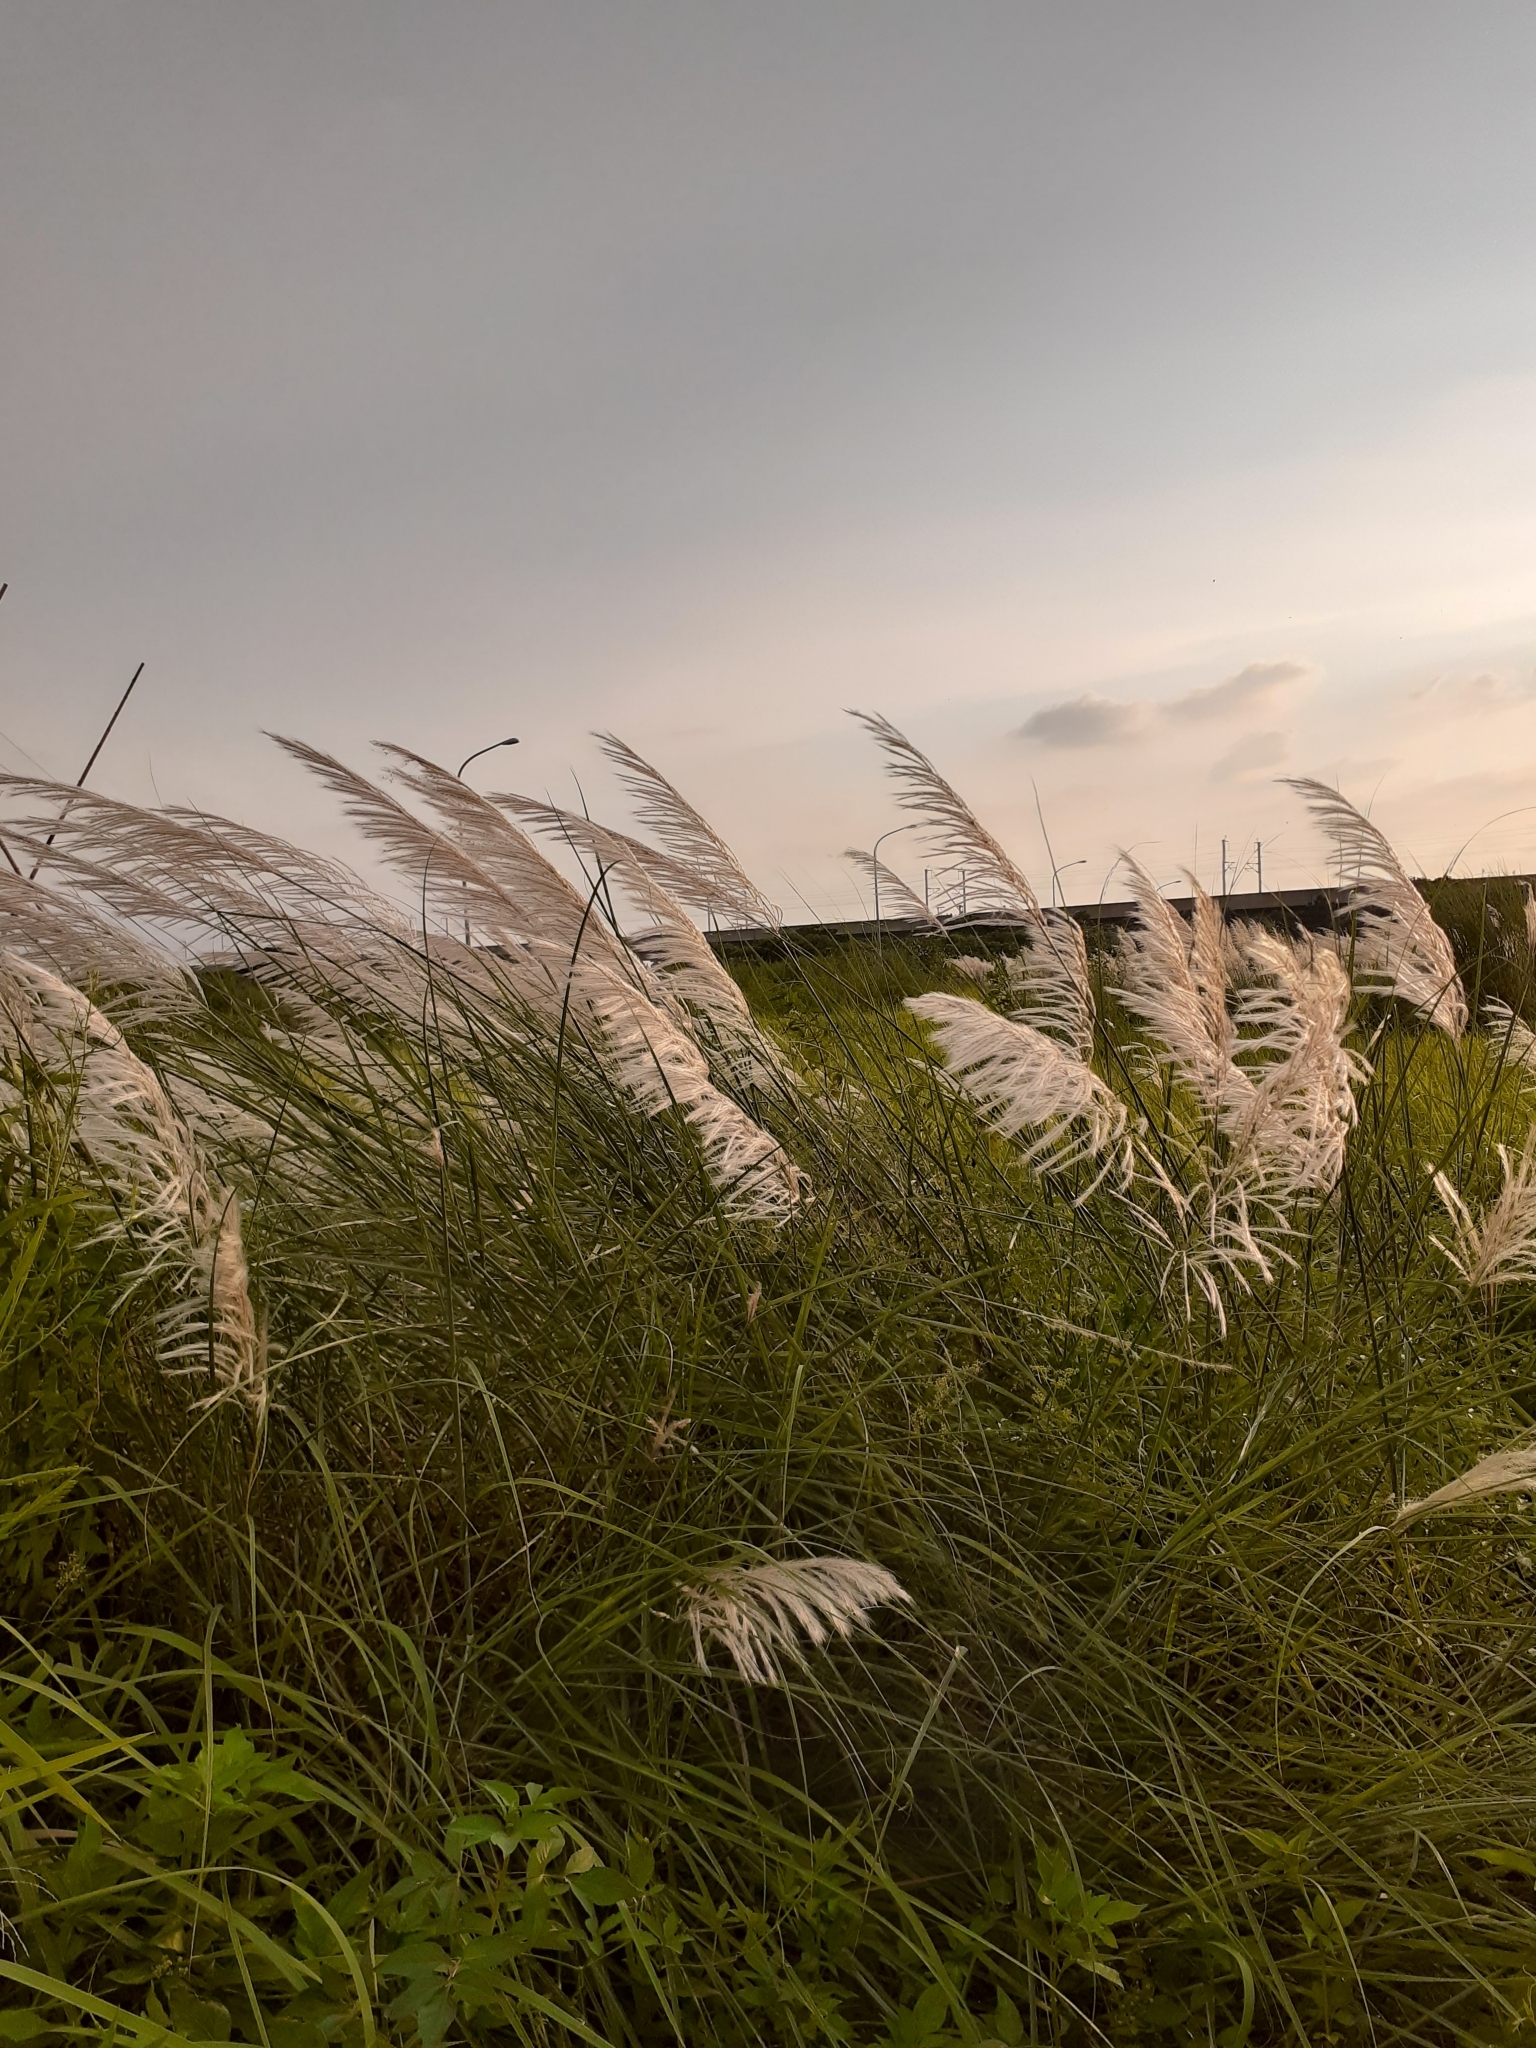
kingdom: Plantae
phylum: Tracheophyta
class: Liliopsida
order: Poales
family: Poaceae
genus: Saccharum
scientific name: Saccharum spontaneum
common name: Wild sugarcane
